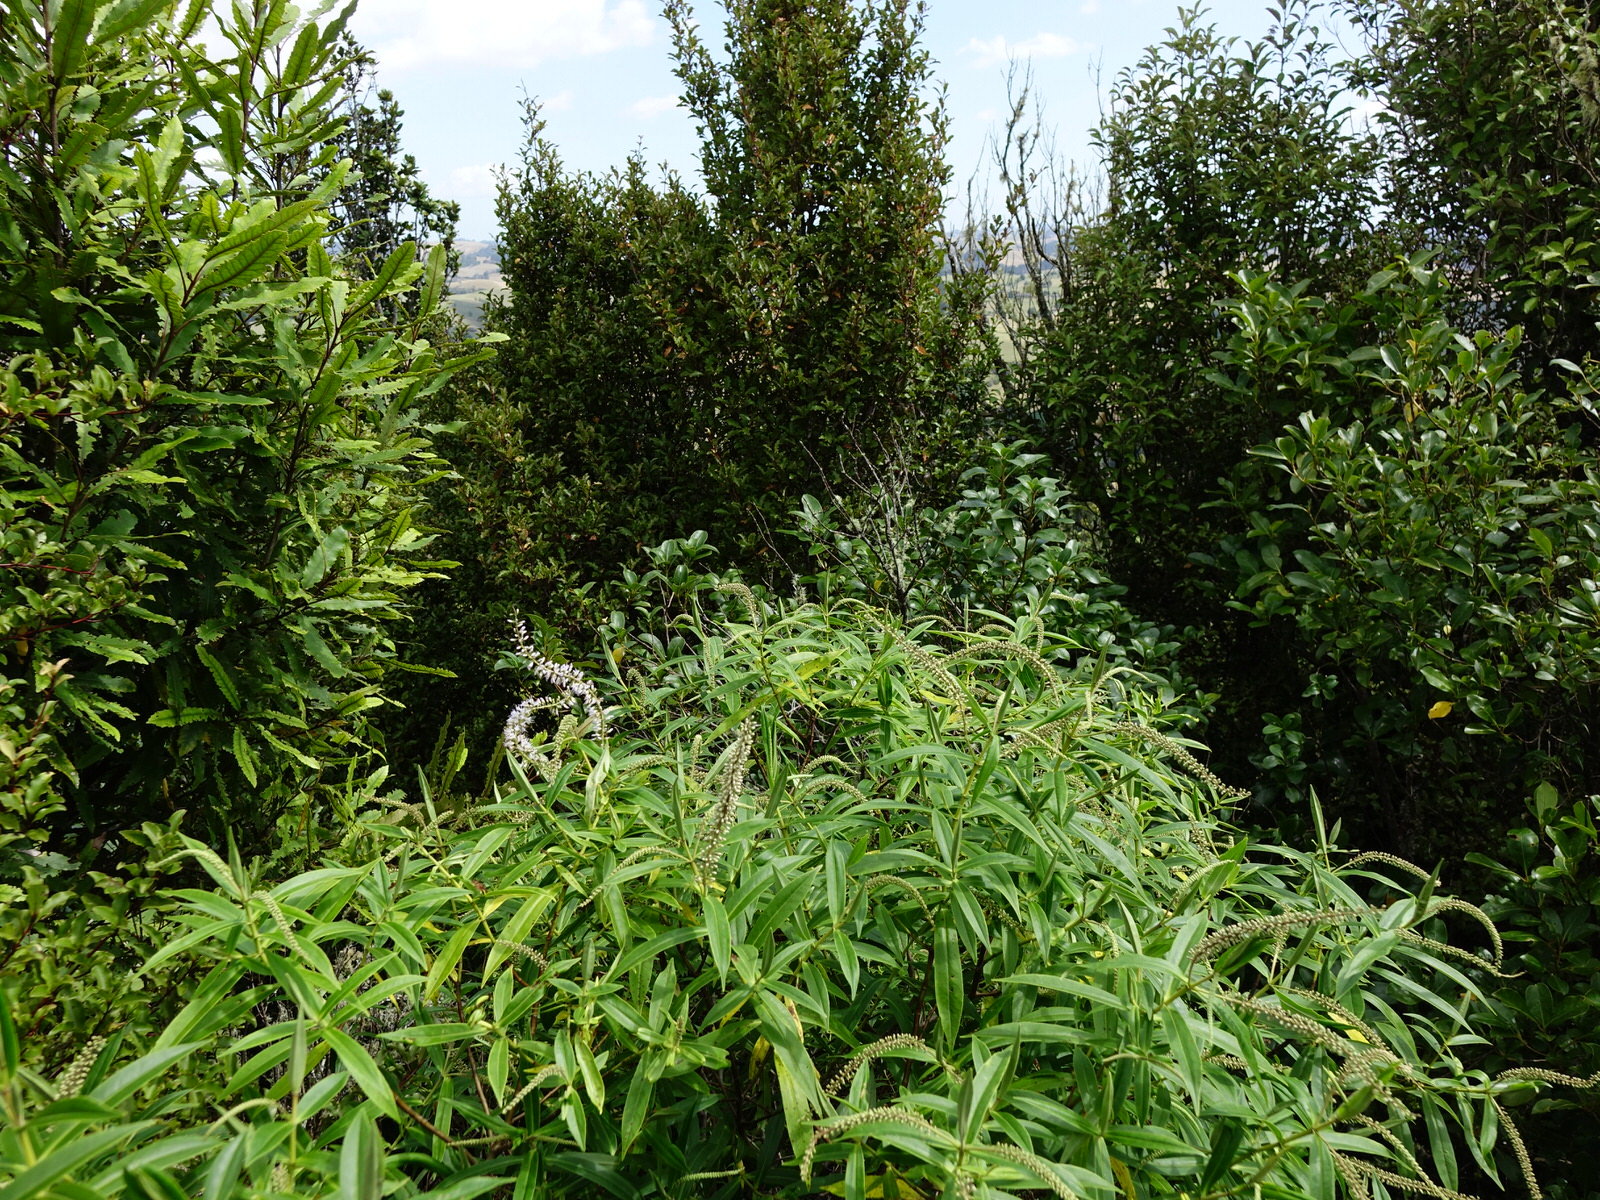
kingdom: Plantae
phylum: Tracheophyta
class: Magnoliopsida
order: Lamiales
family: Plantaginaceae
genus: Veronica
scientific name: Veronica stricta
